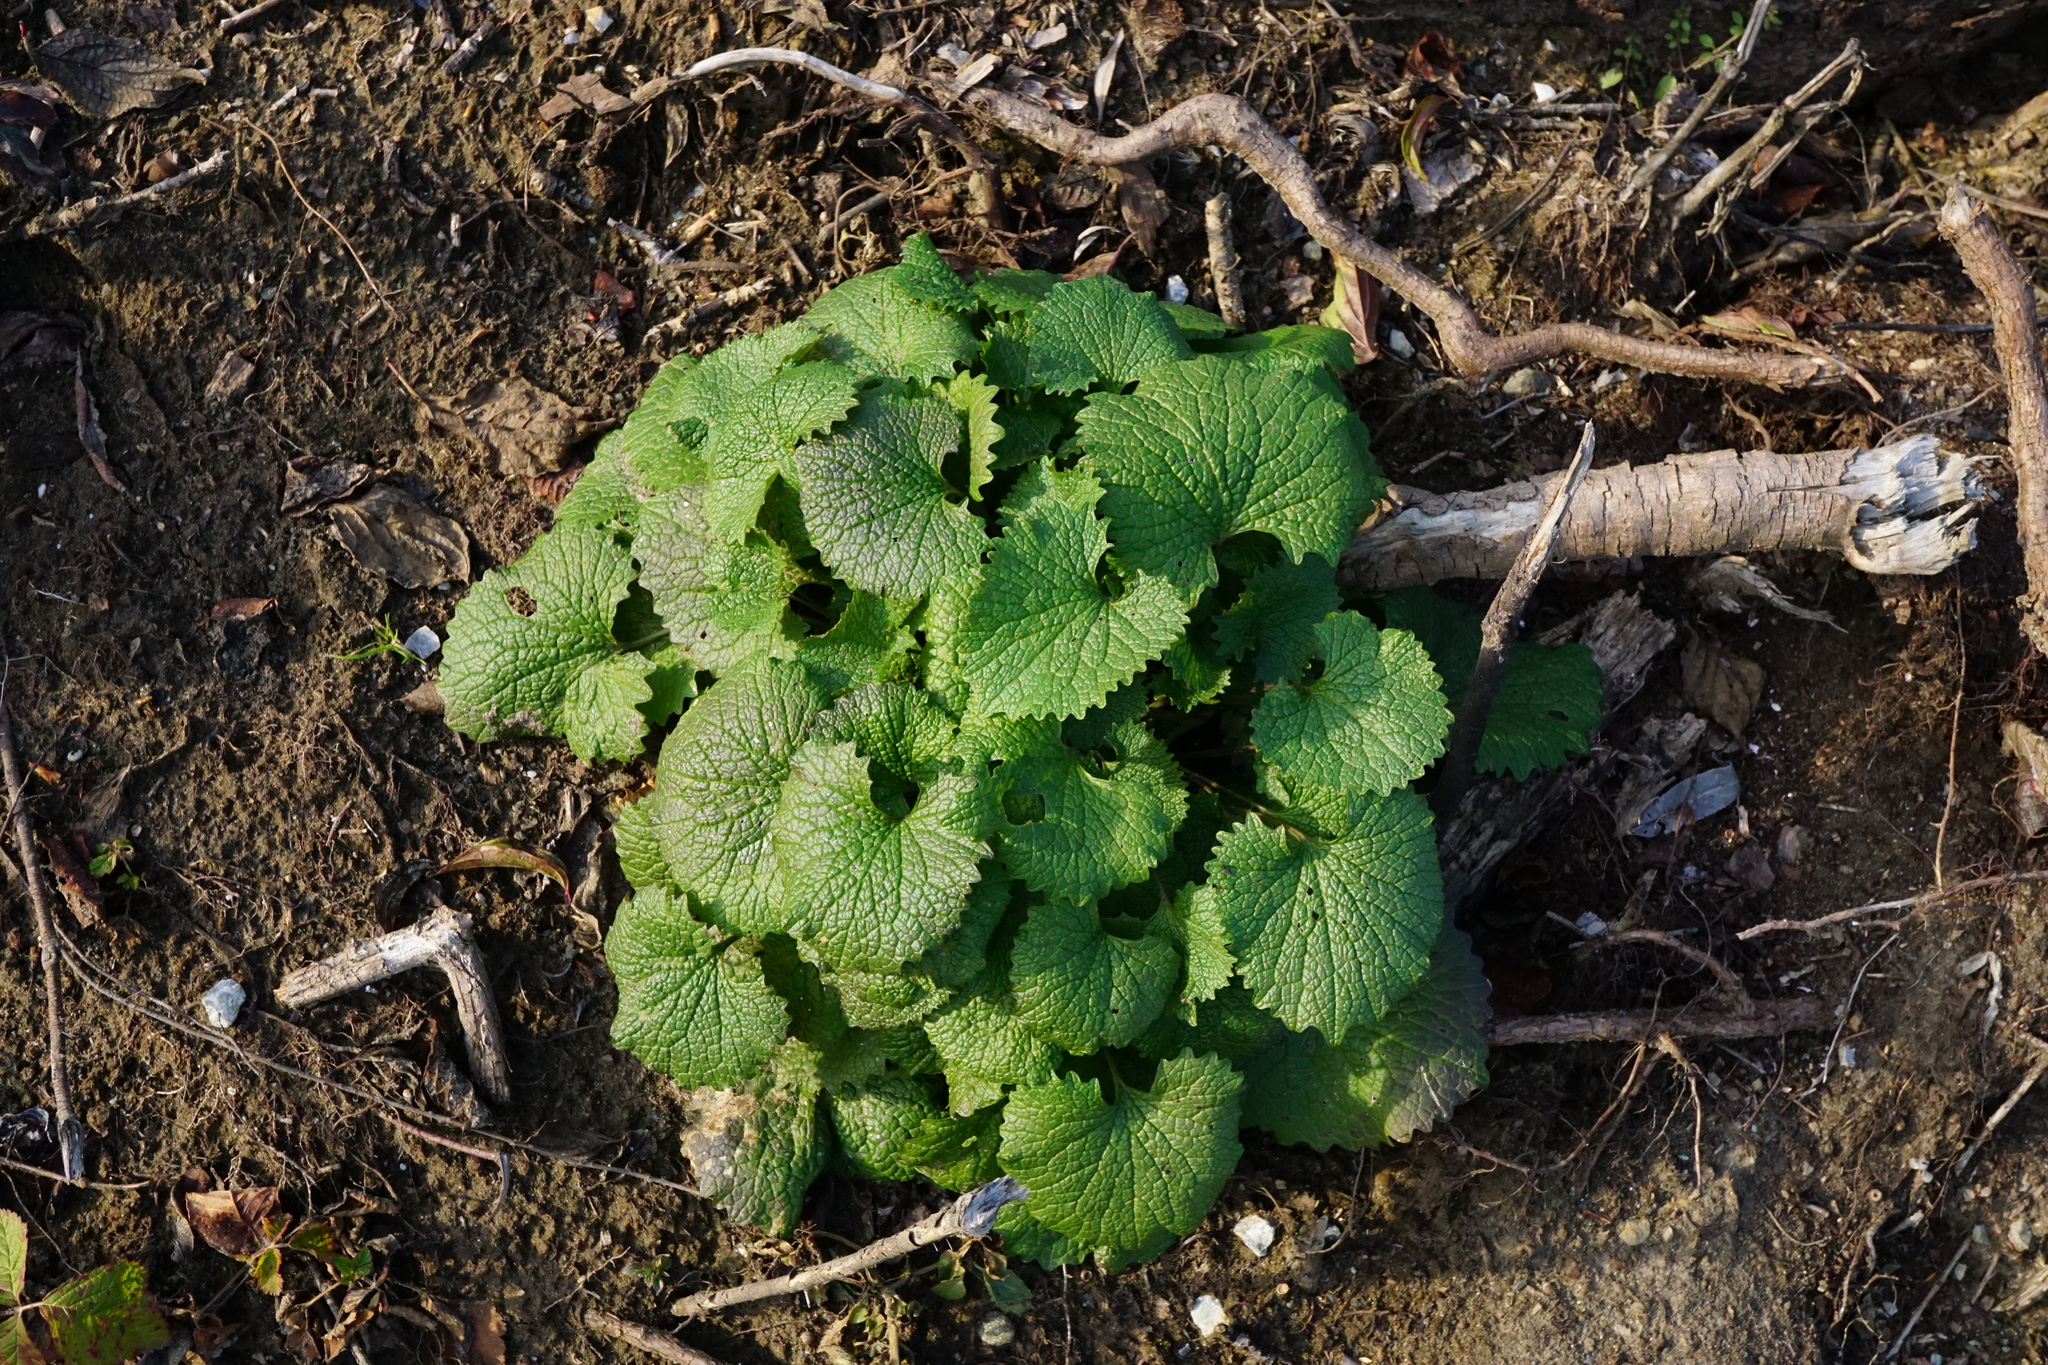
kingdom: Plantae
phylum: Tracheophyta
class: Magnoliopsida
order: Brassicales
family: Brassicaceae
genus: Alliaria
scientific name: Alliaria petiolata
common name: Garlic mustard
